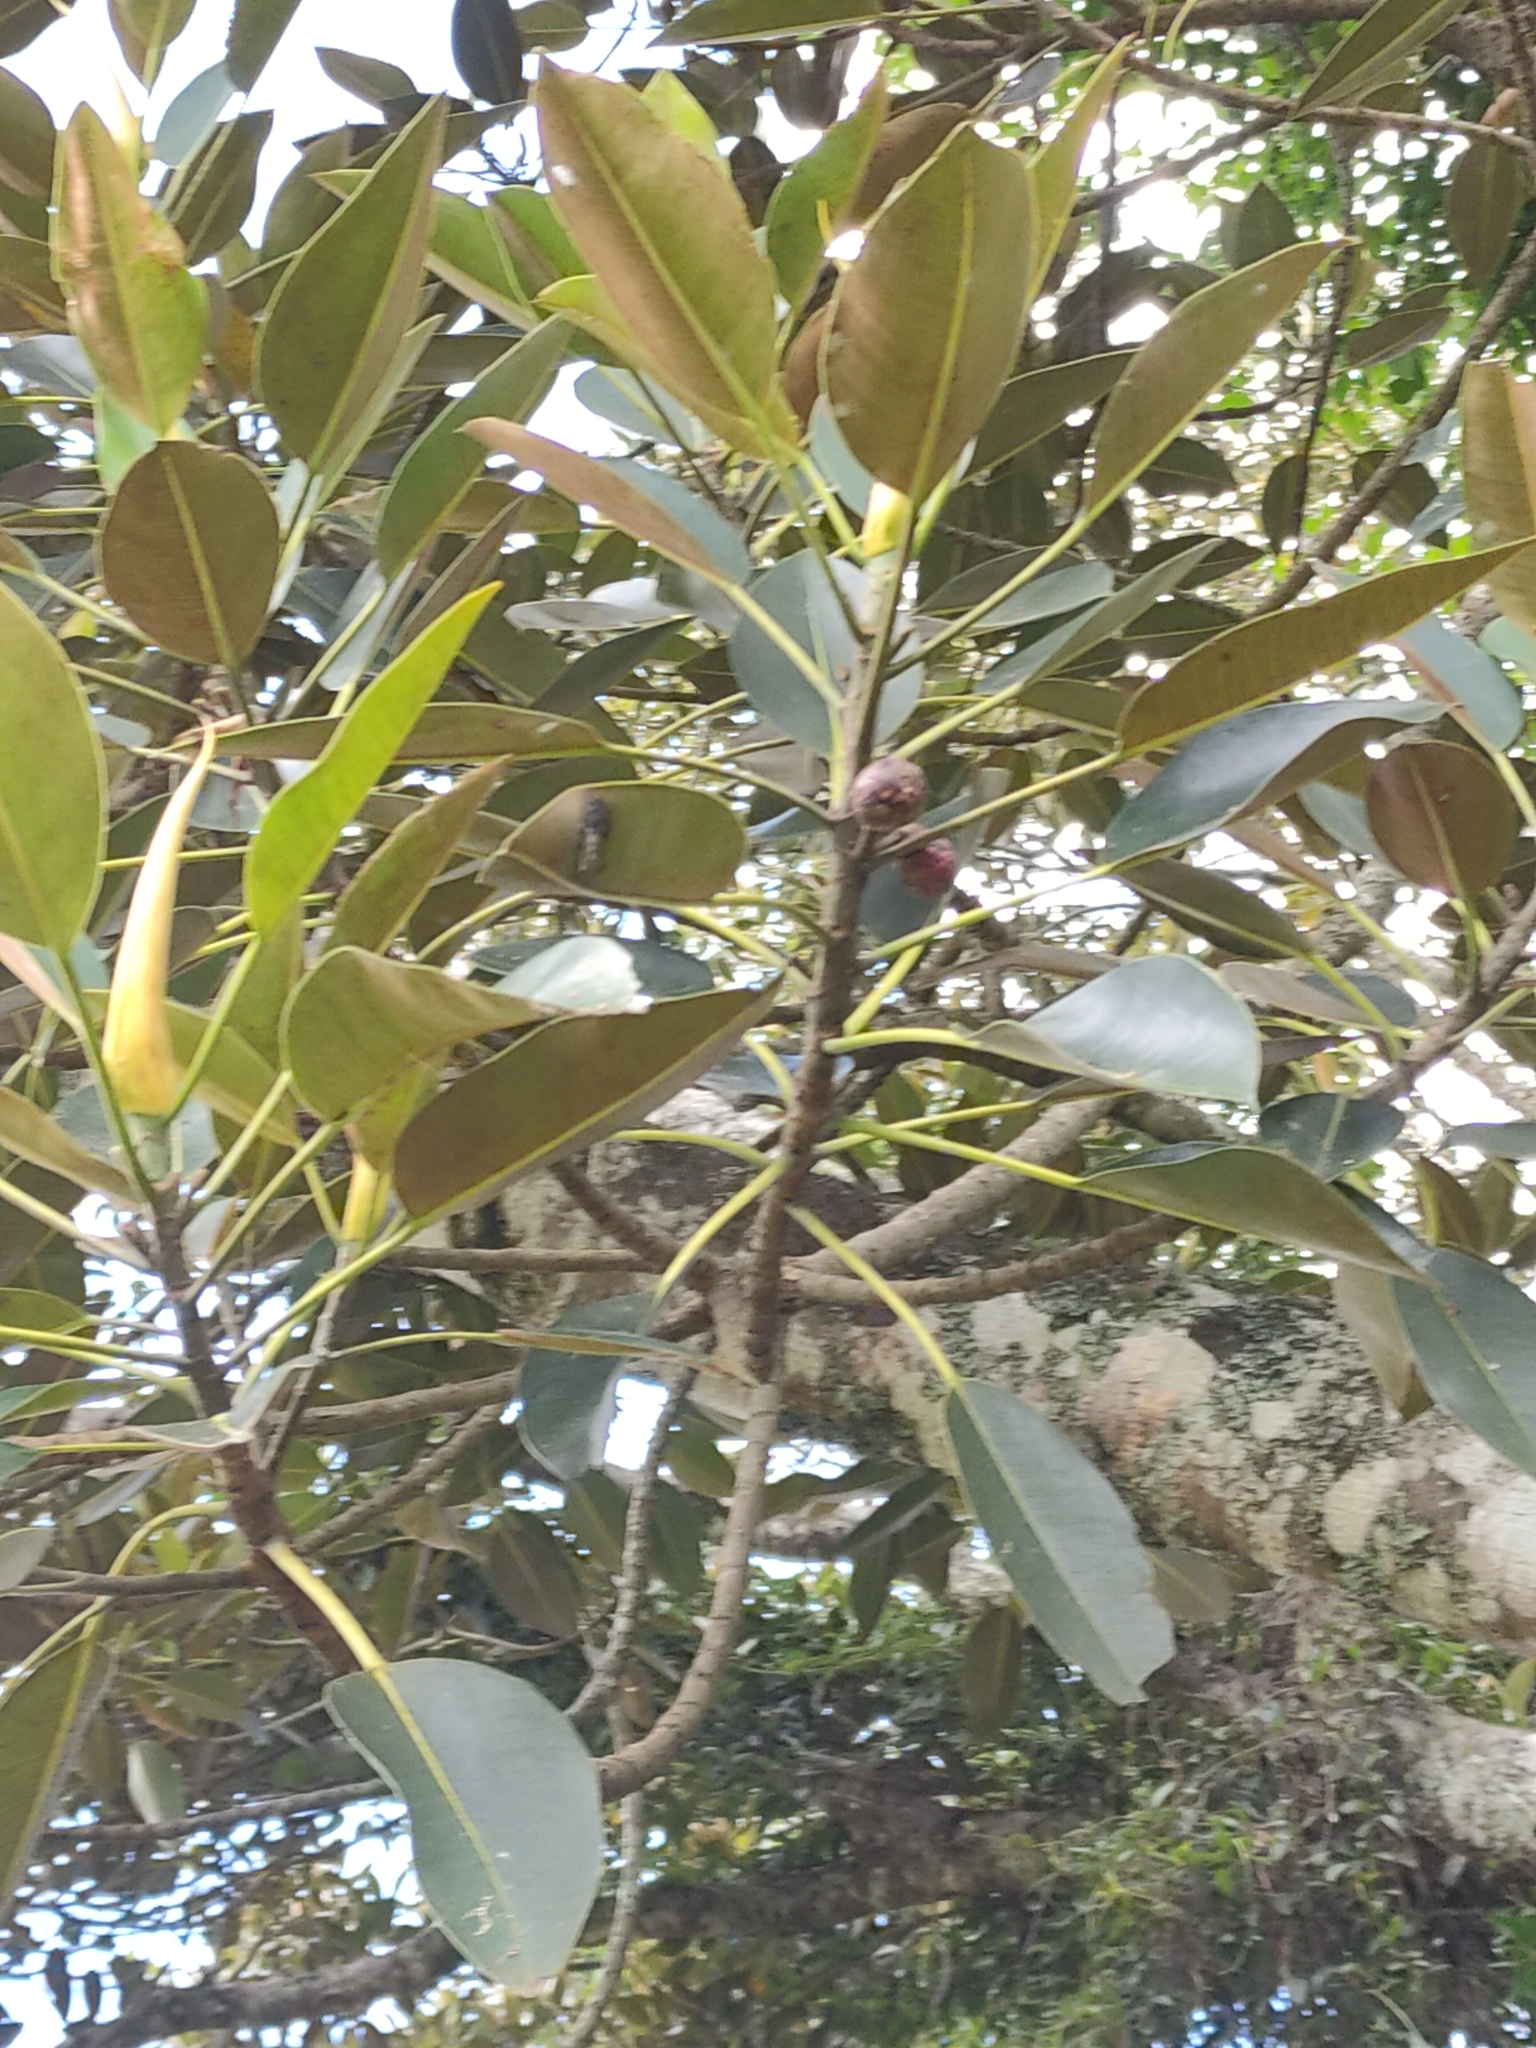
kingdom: Plantae
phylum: Tracheophyta
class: Magnoliopsida
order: Rosales
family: Moraceae
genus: Ficus
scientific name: Ficus macrophylla
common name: Moreton bay fig
